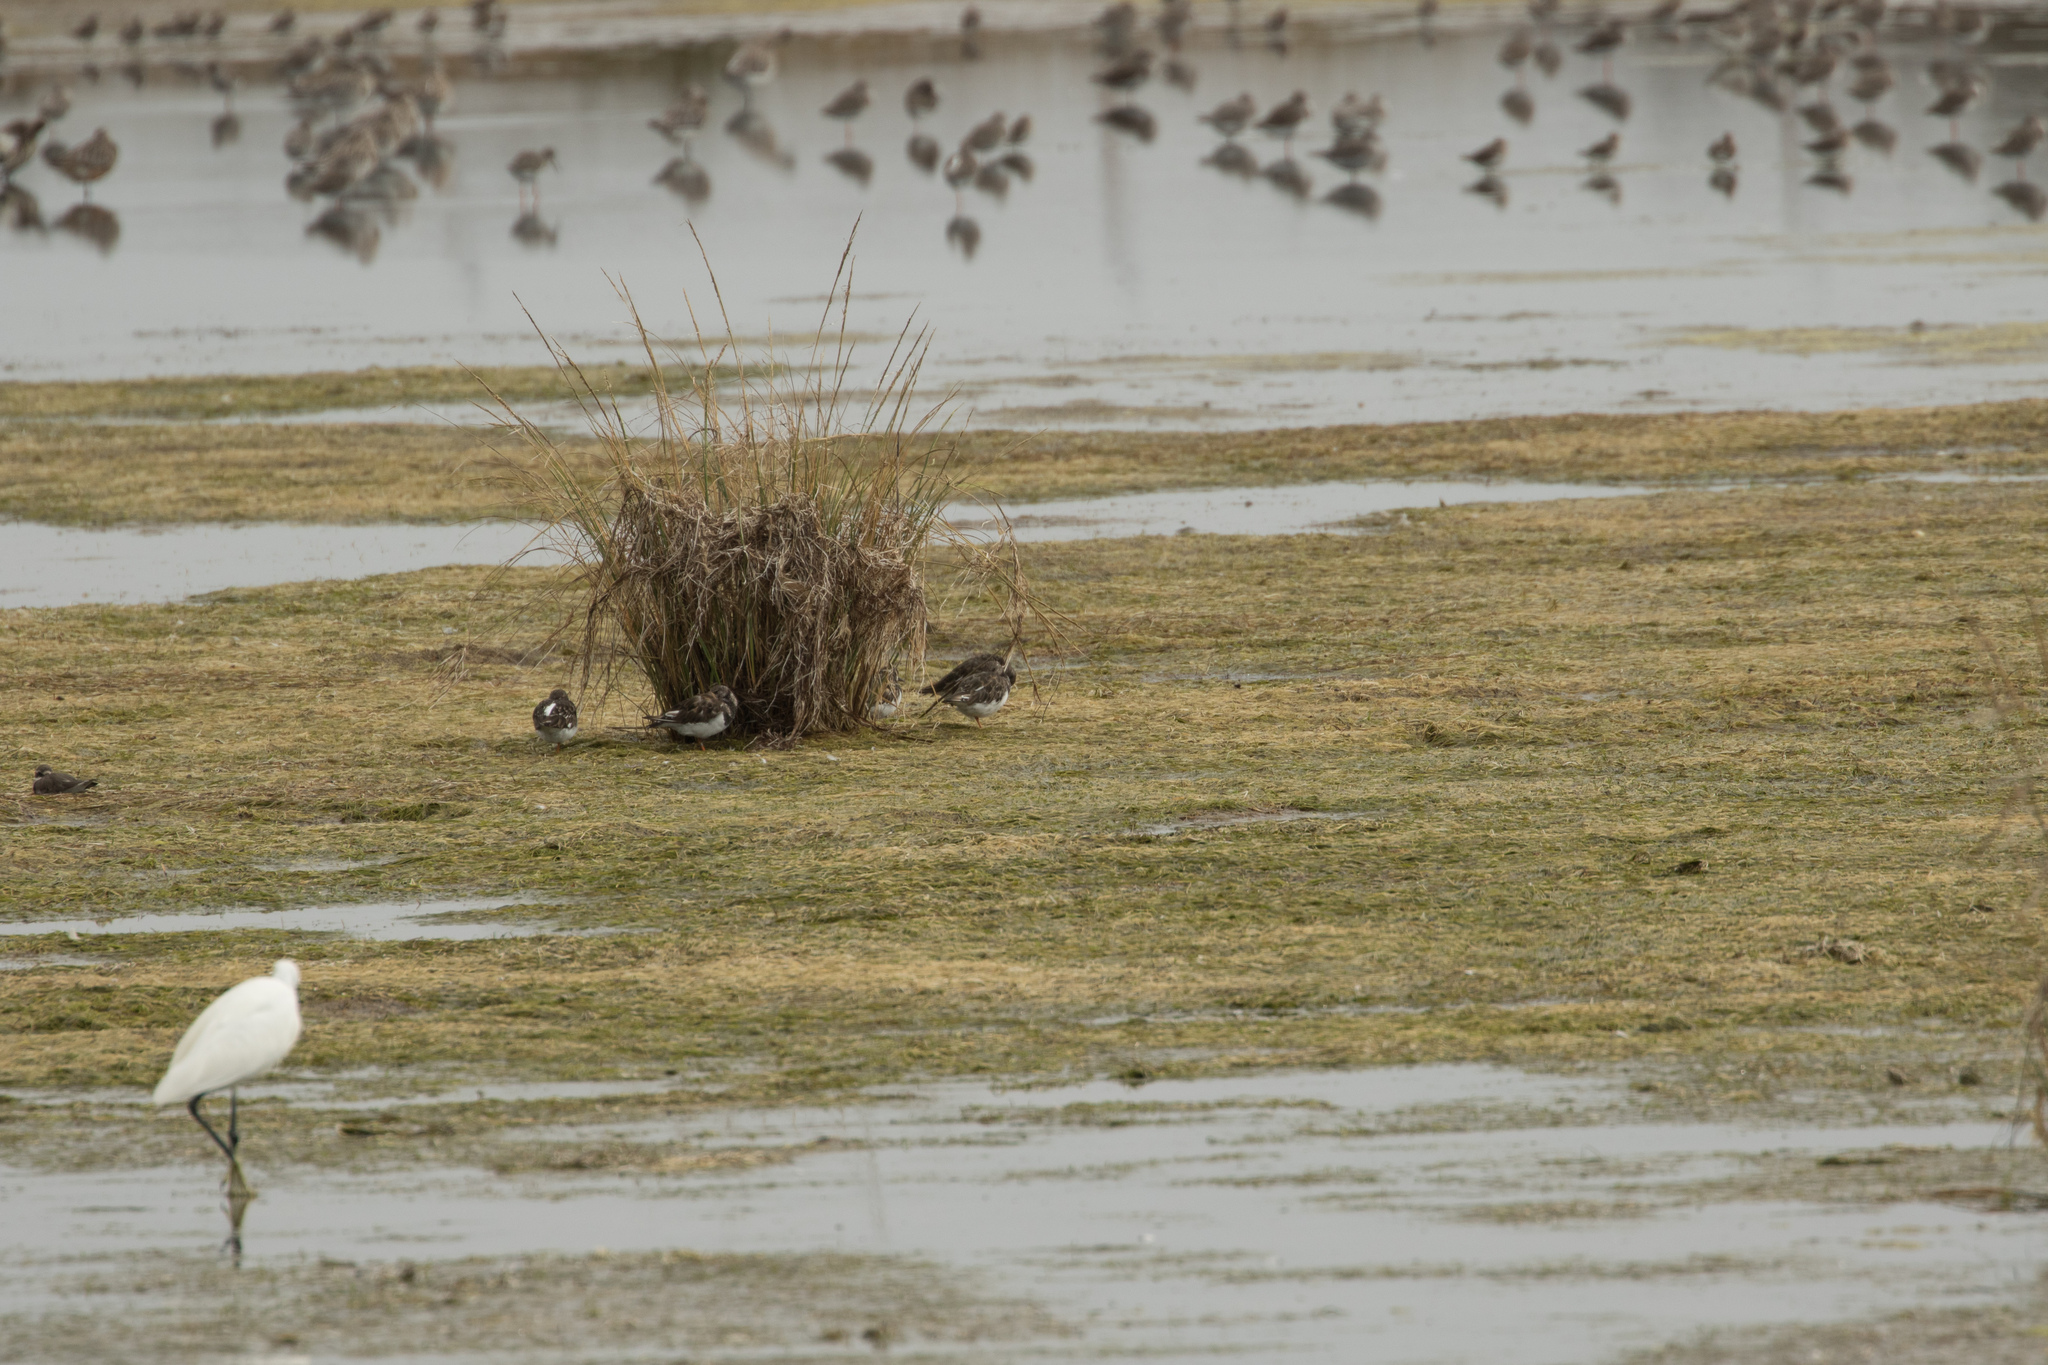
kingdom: Animalia
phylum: Chordata
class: Aves
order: Charadriiformes
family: Scolopacidae
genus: Arenaria
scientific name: Arenaria interpres
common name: Ruddy turnstone
